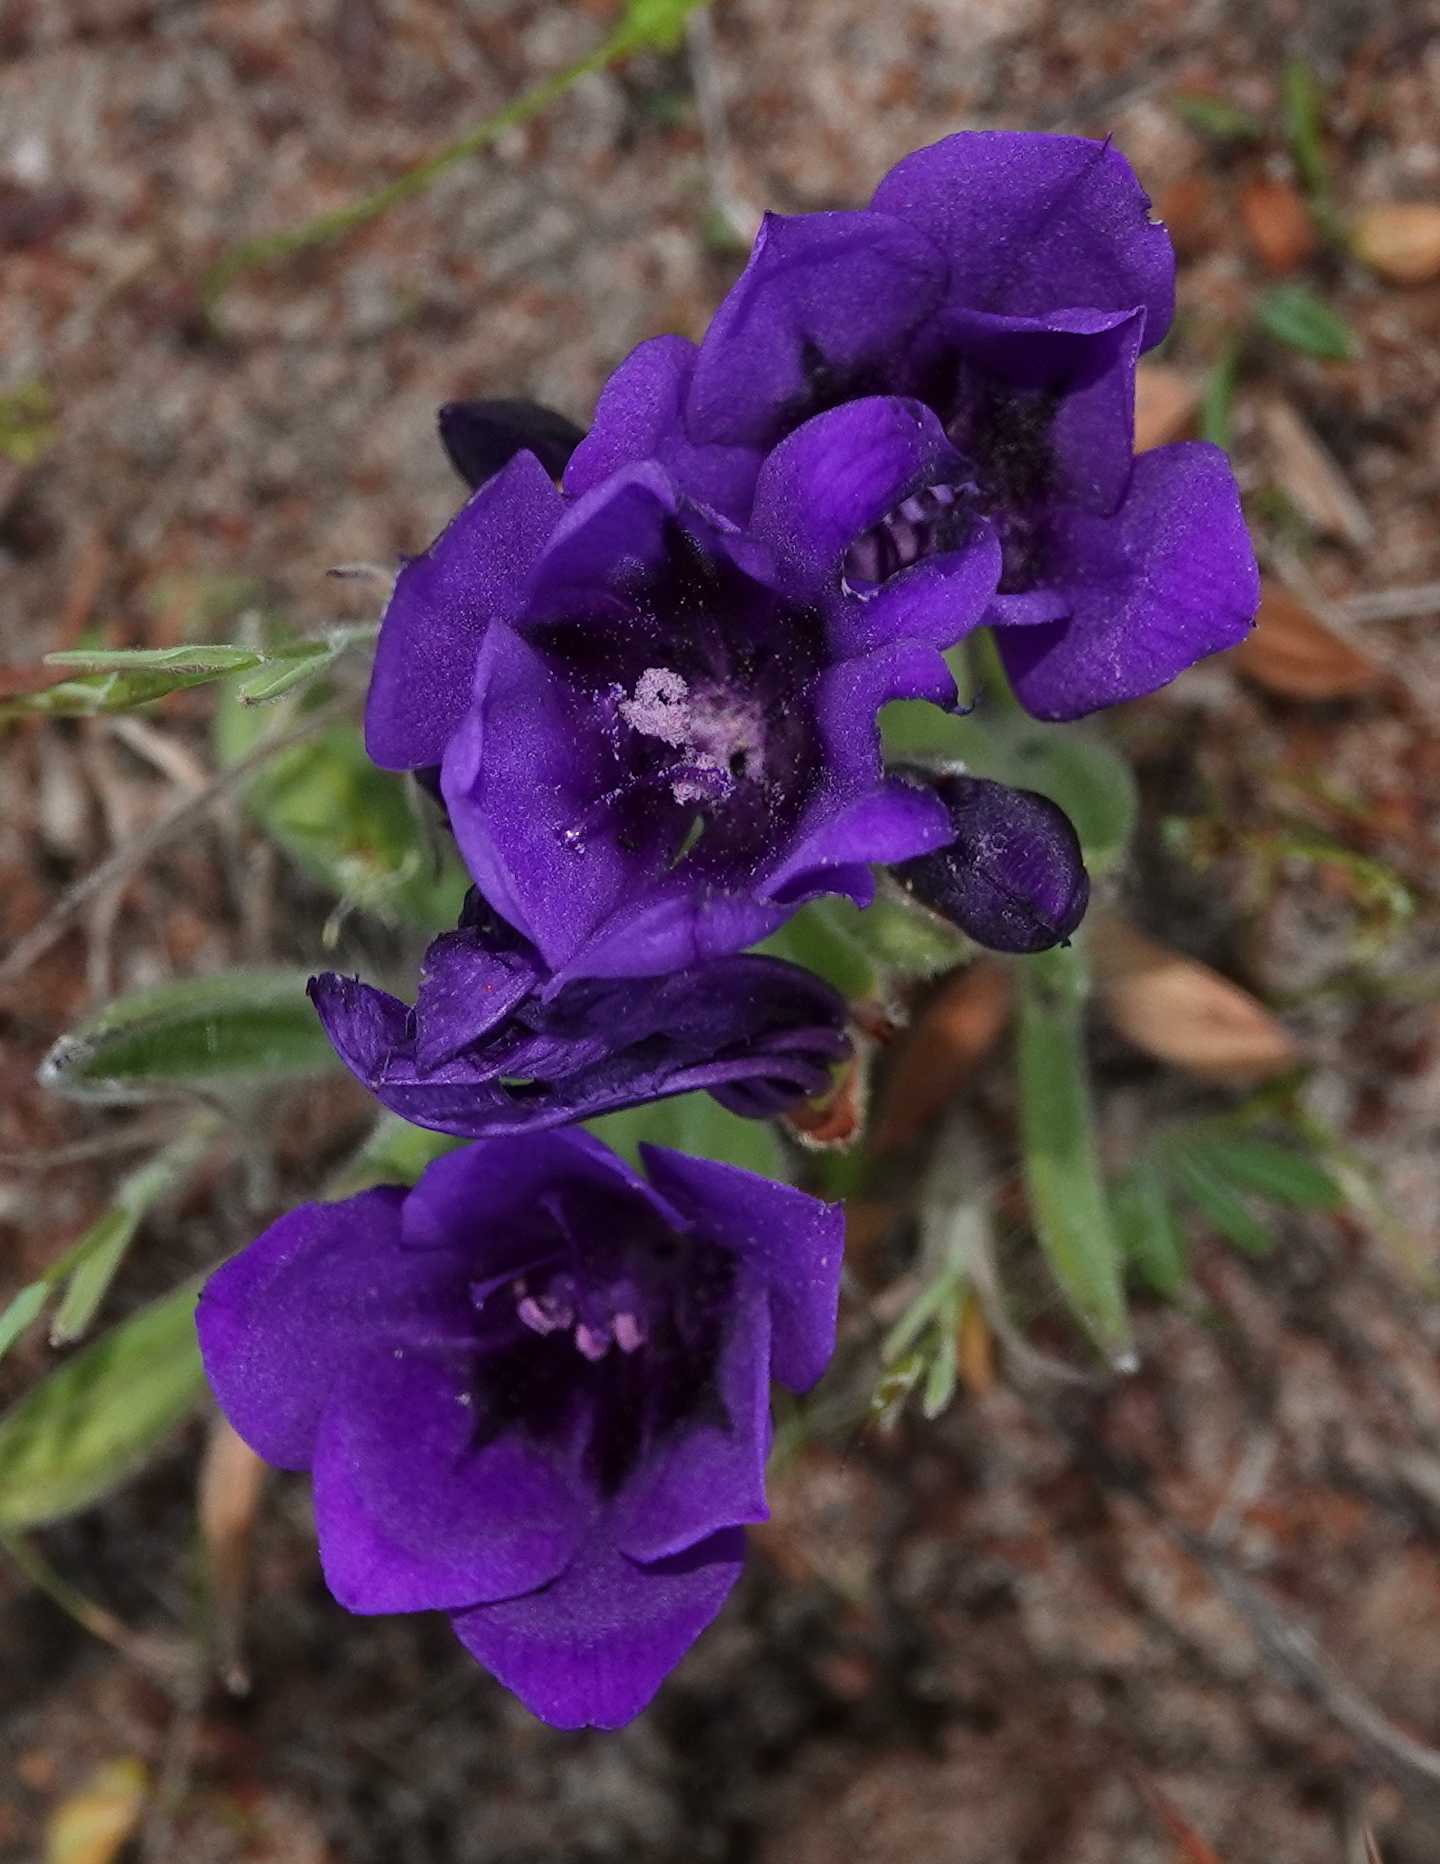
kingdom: Plantae
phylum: Tracheophyta
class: Liliopsida
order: Asparagales
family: Iridaceae
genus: Babiana
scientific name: Babiana angustifolia
